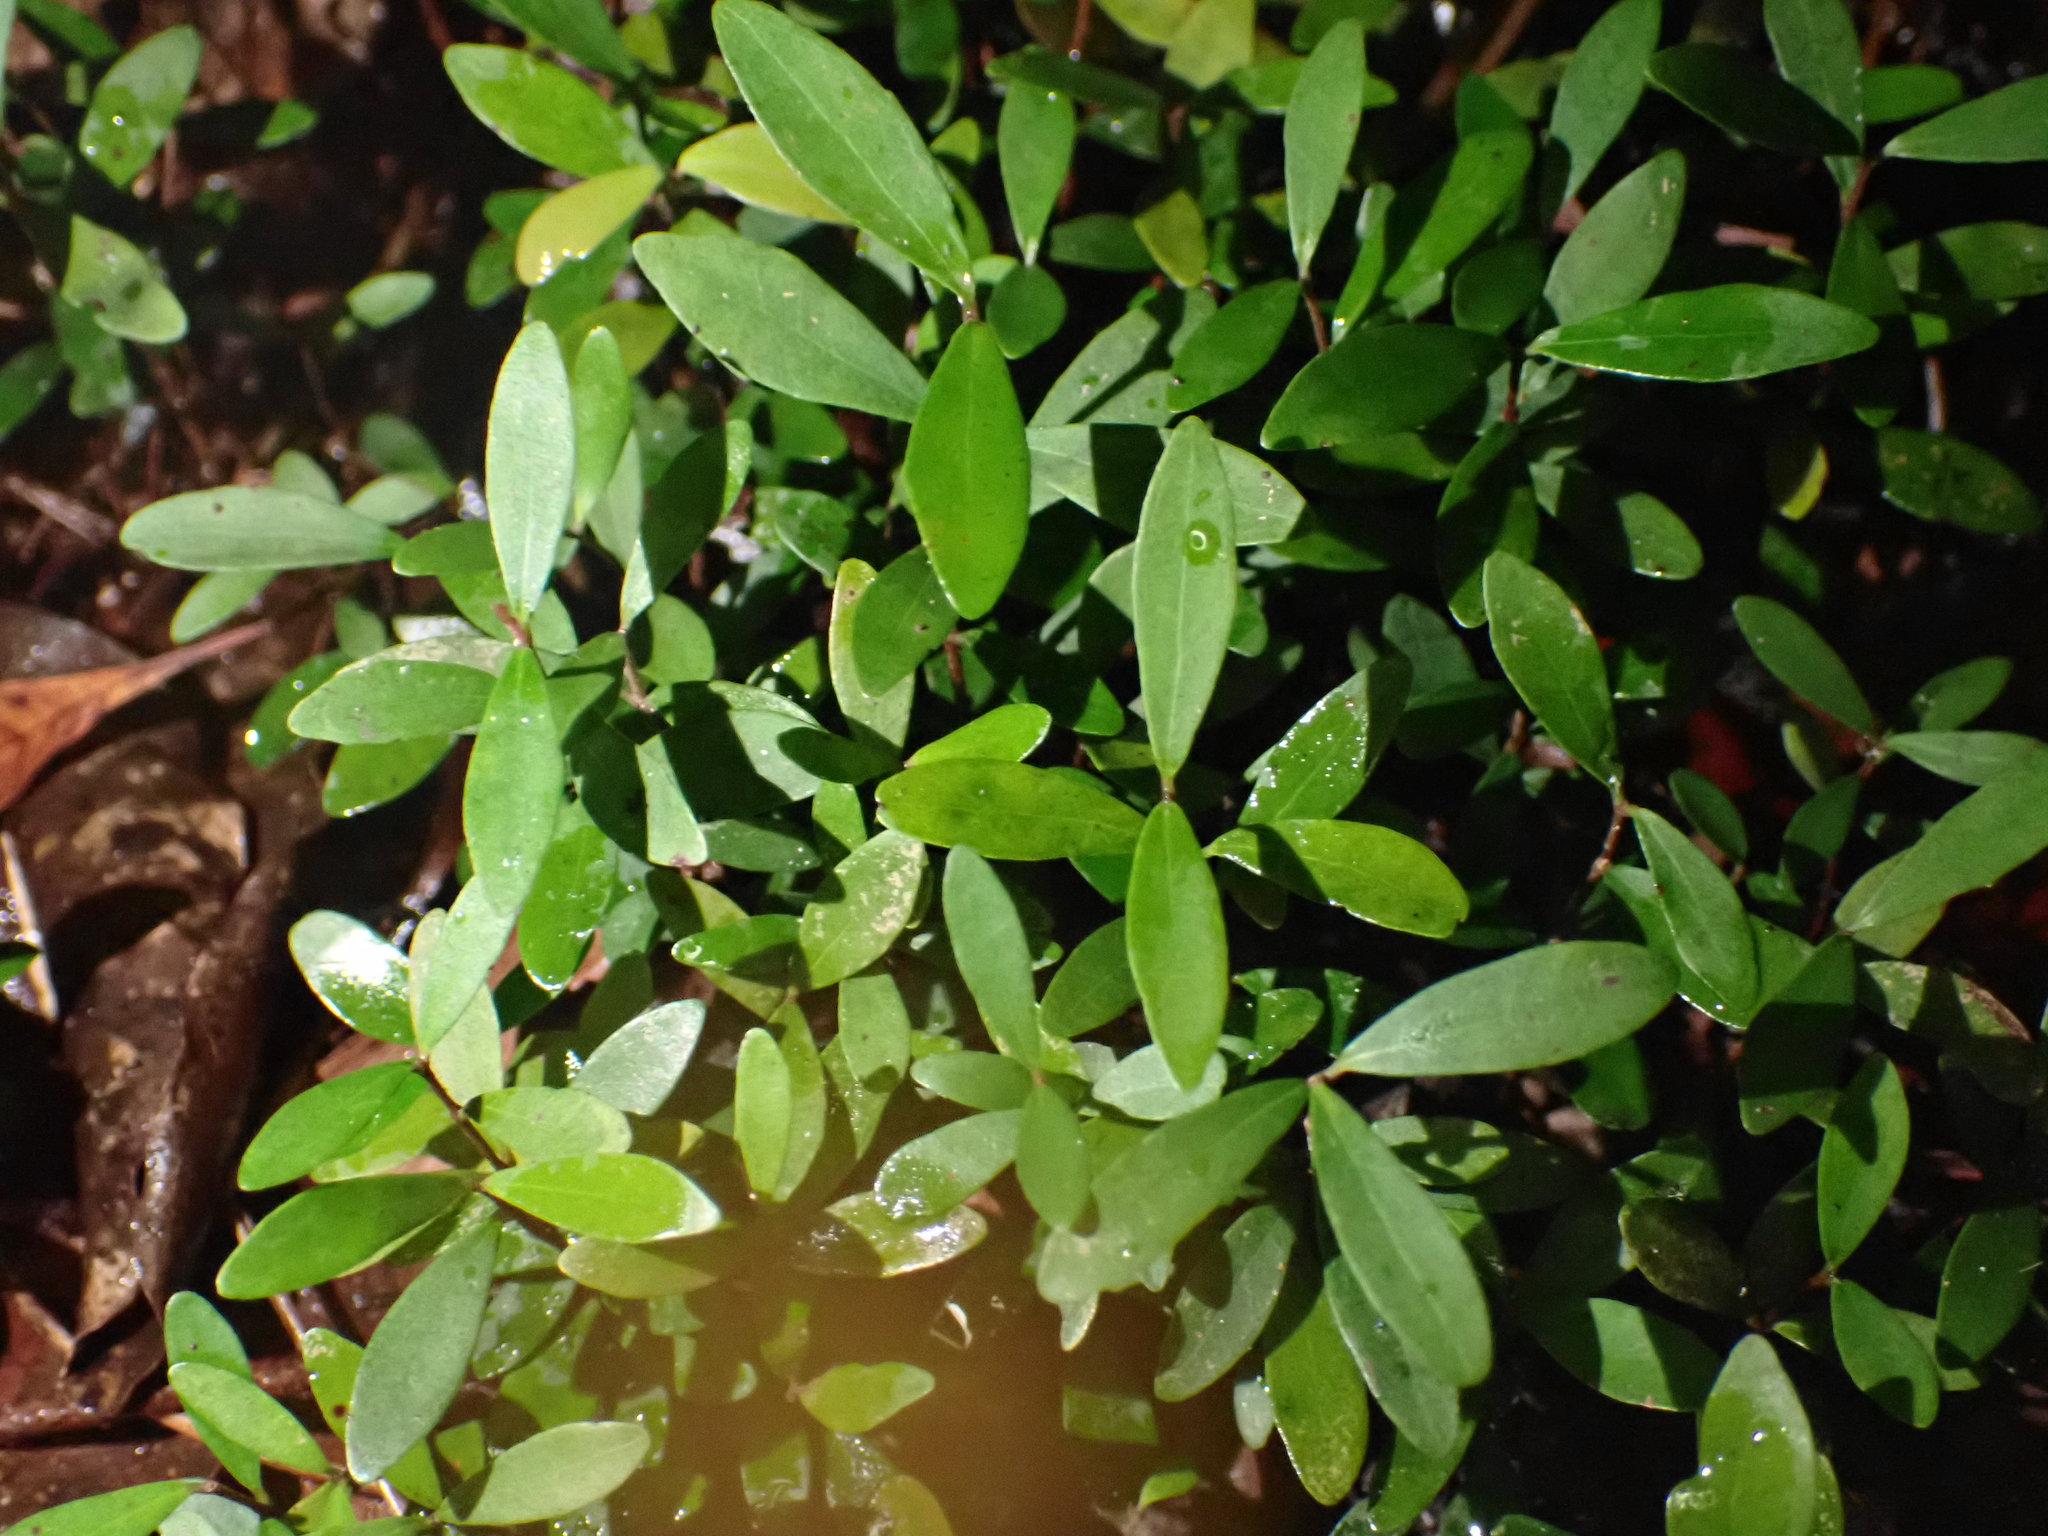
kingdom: Plantae
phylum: Tracheophyta
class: Magnoliopsida
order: Myrtales
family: Myrtaceae
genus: Myrcianthes
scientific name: Myrcianthes fragrans
